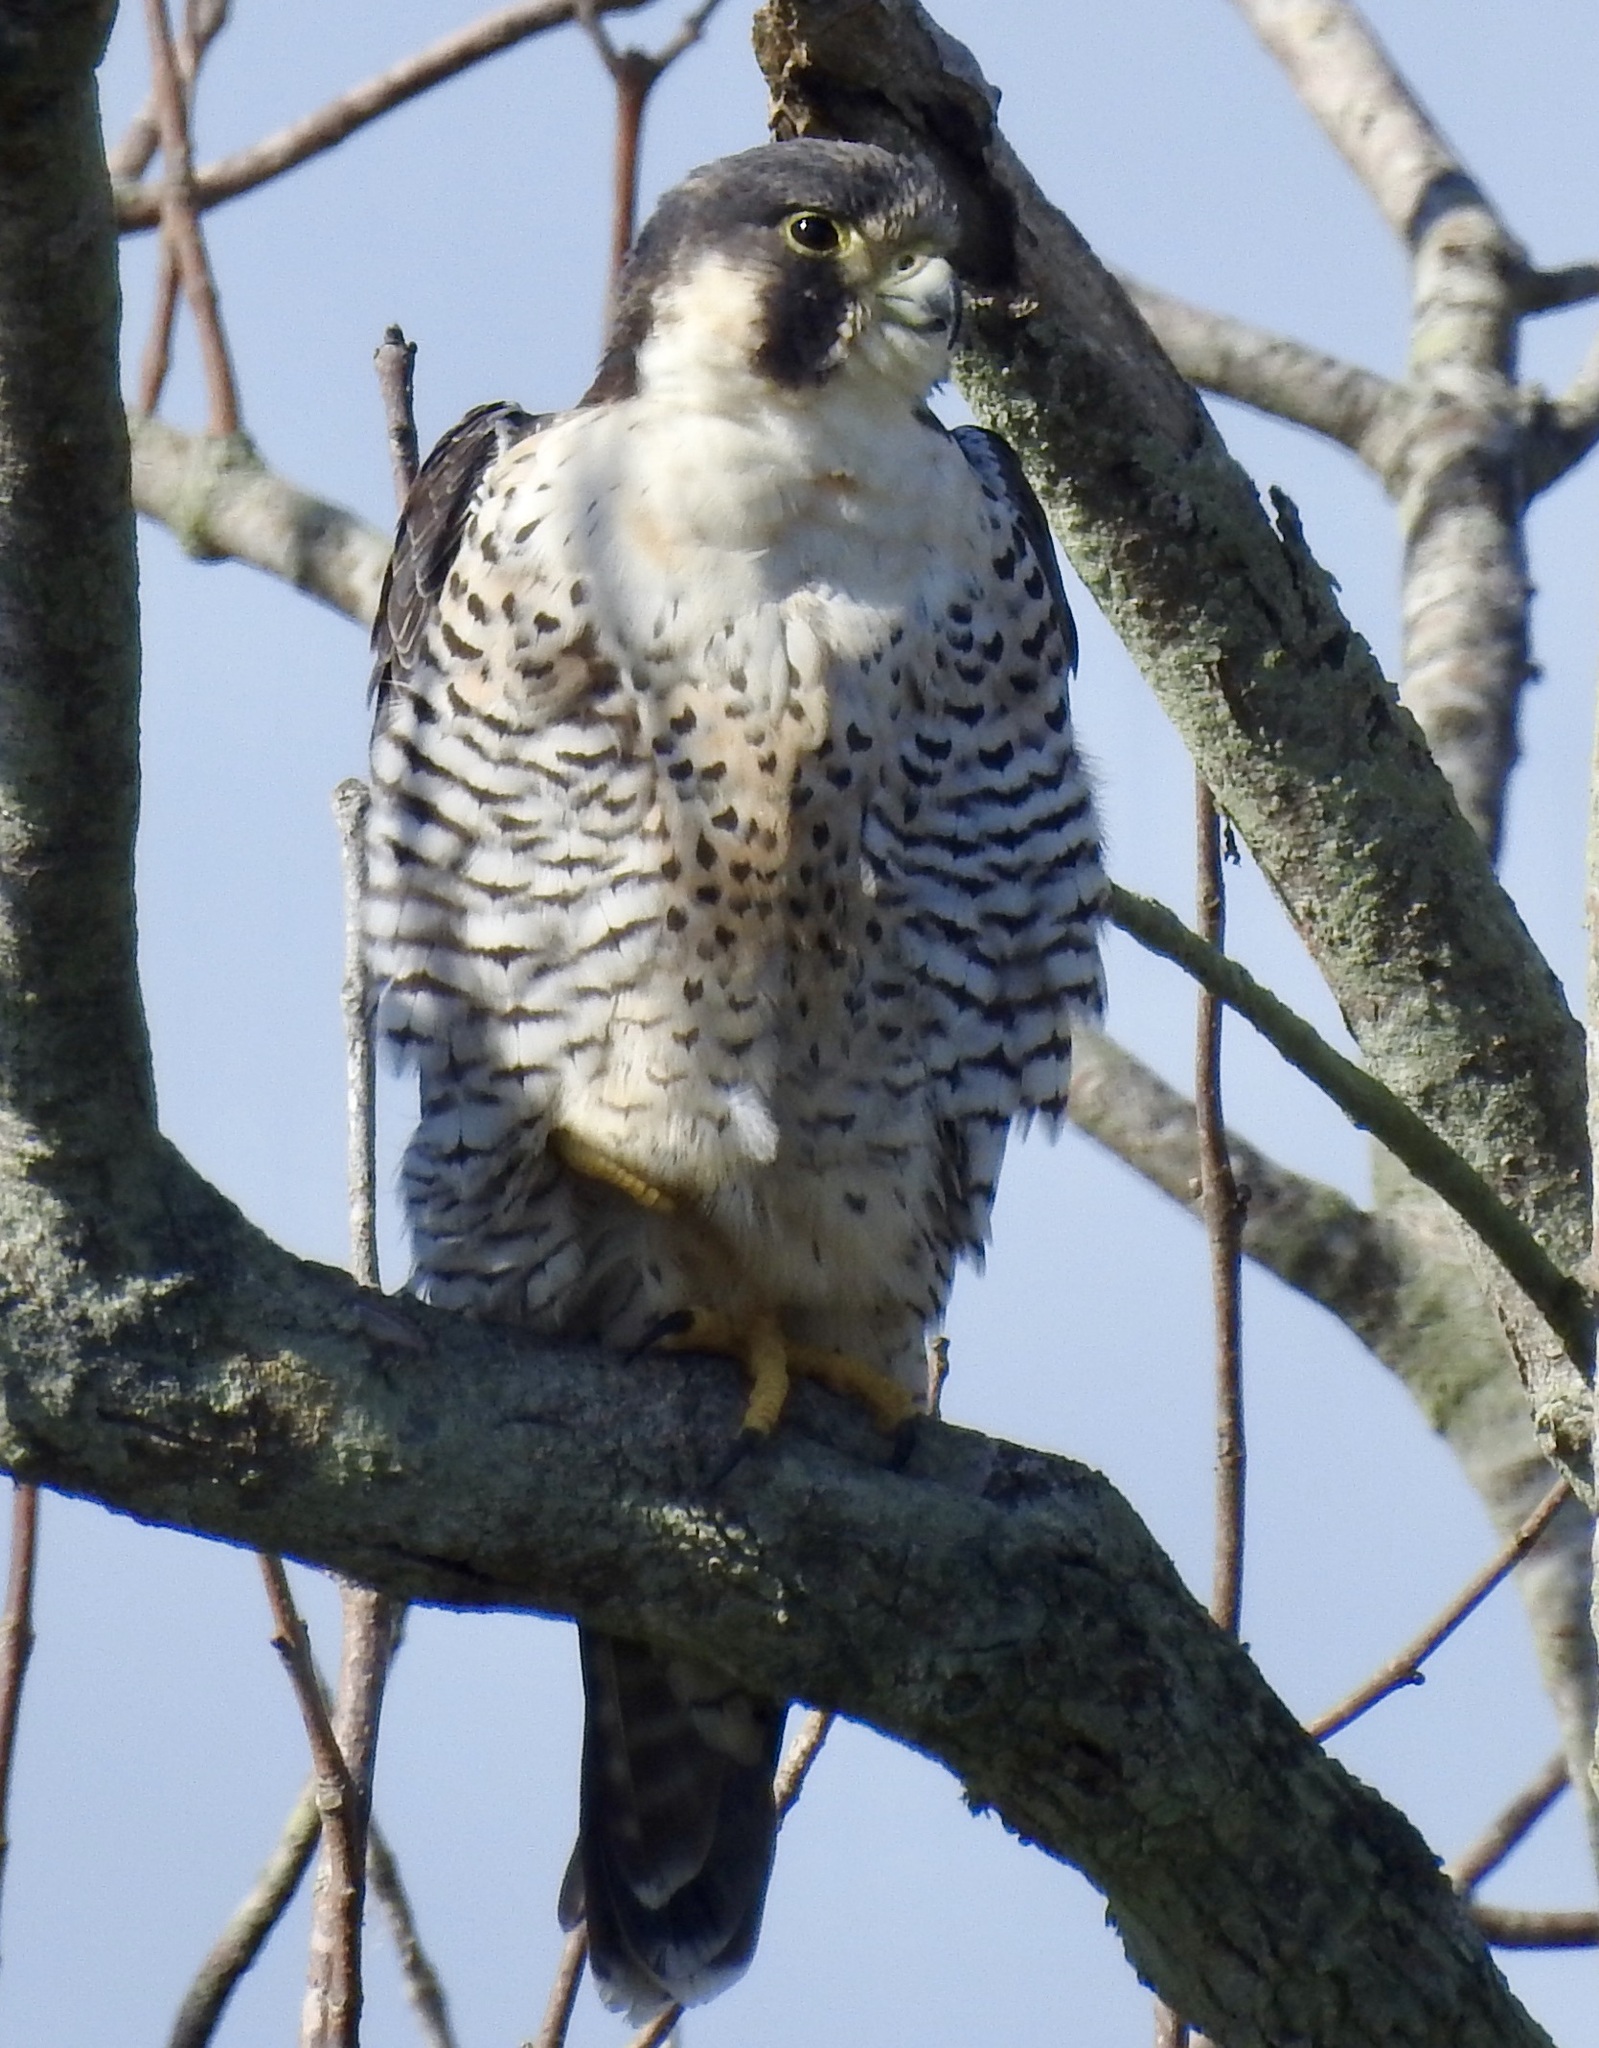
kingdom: Animalia
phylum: Chordata
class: Aves
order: Falconiformes
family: Falconidae
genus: Falco
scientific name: Falco peregrinus
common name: Peregrine falcon
